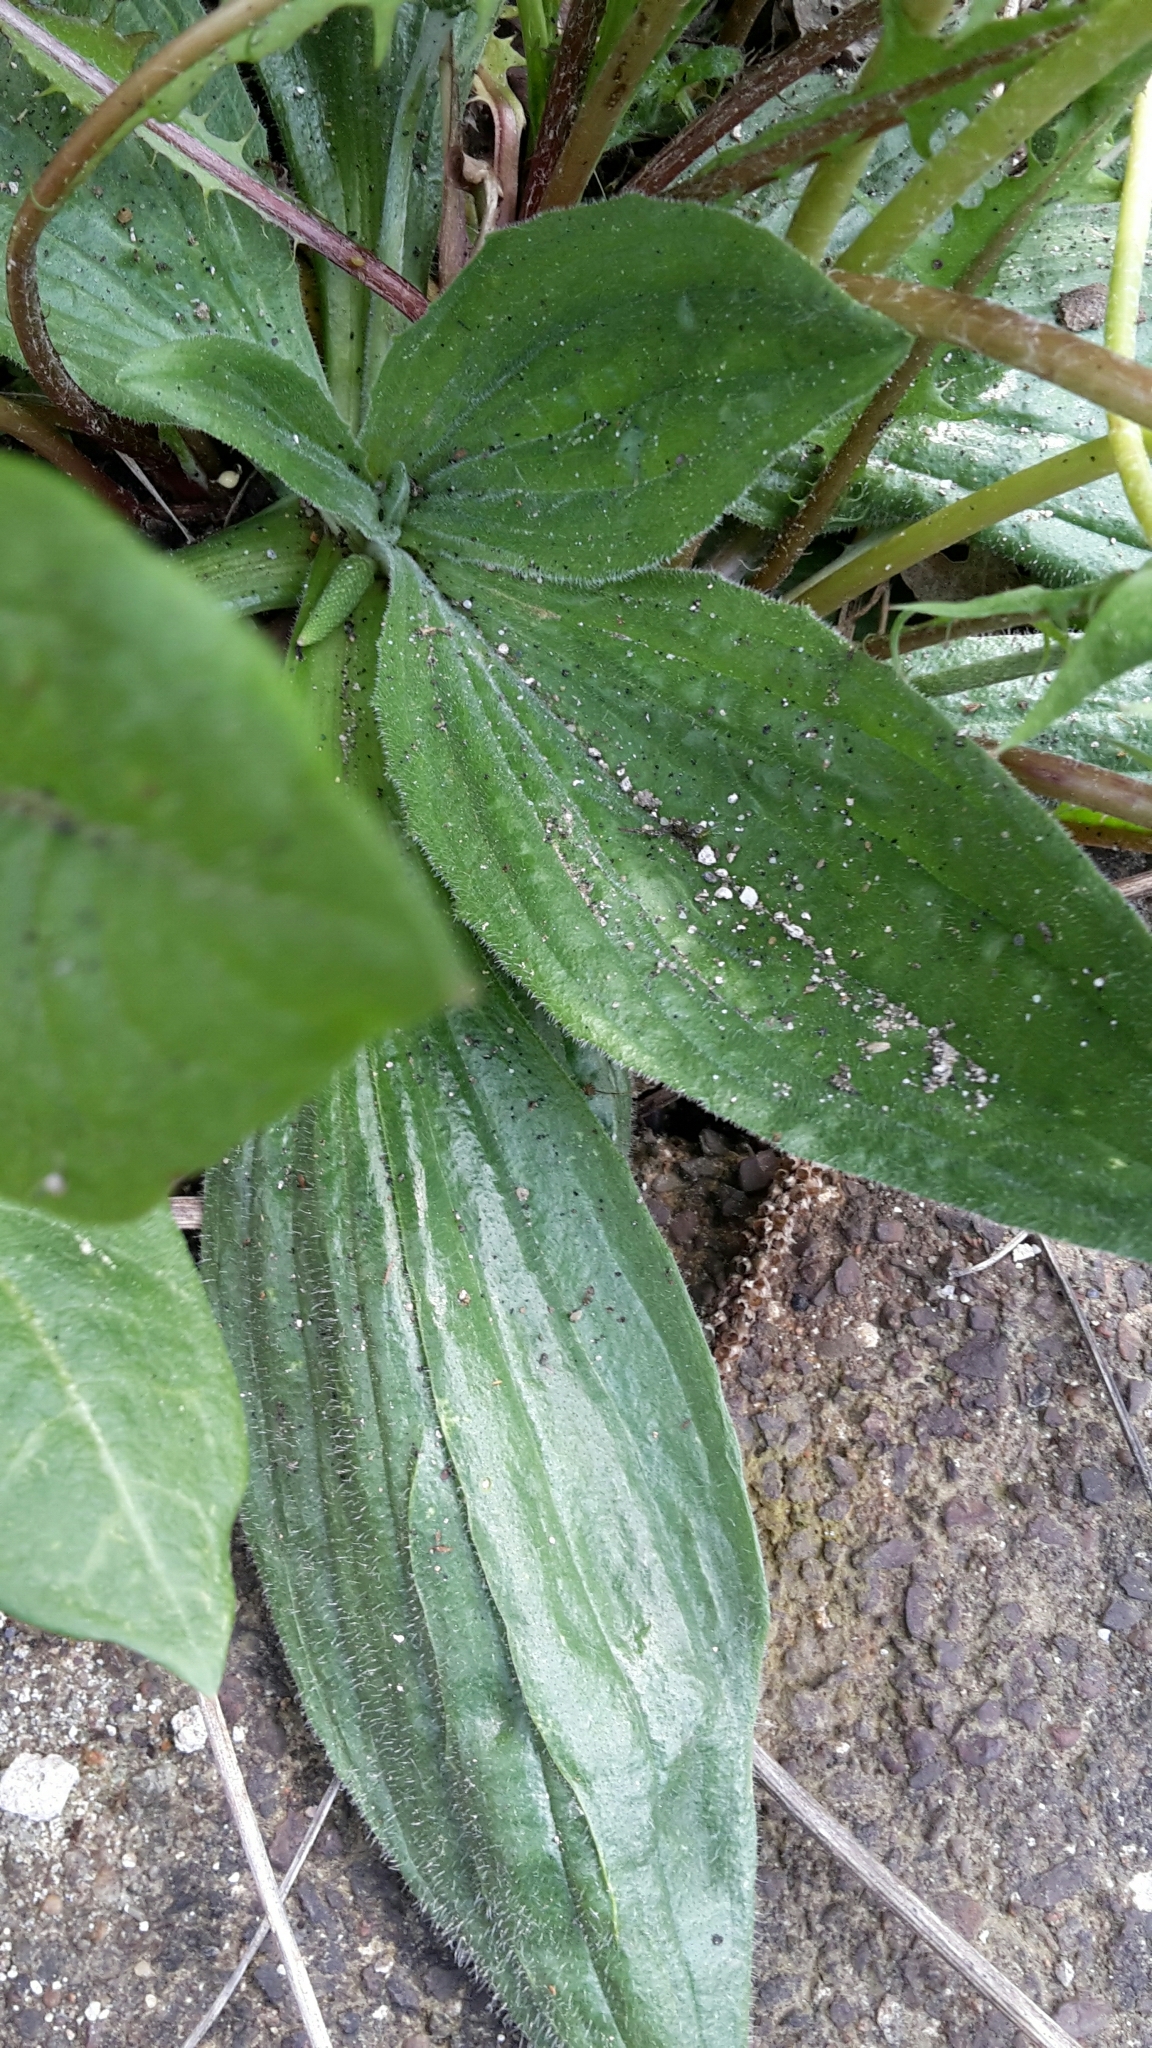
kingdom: Plantae
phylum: Tracheophyta
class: Magnoliopsida
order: Lamiales
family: Plantaginaceae
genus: Plantago
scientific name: Plantago media
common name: Hoary plantain
